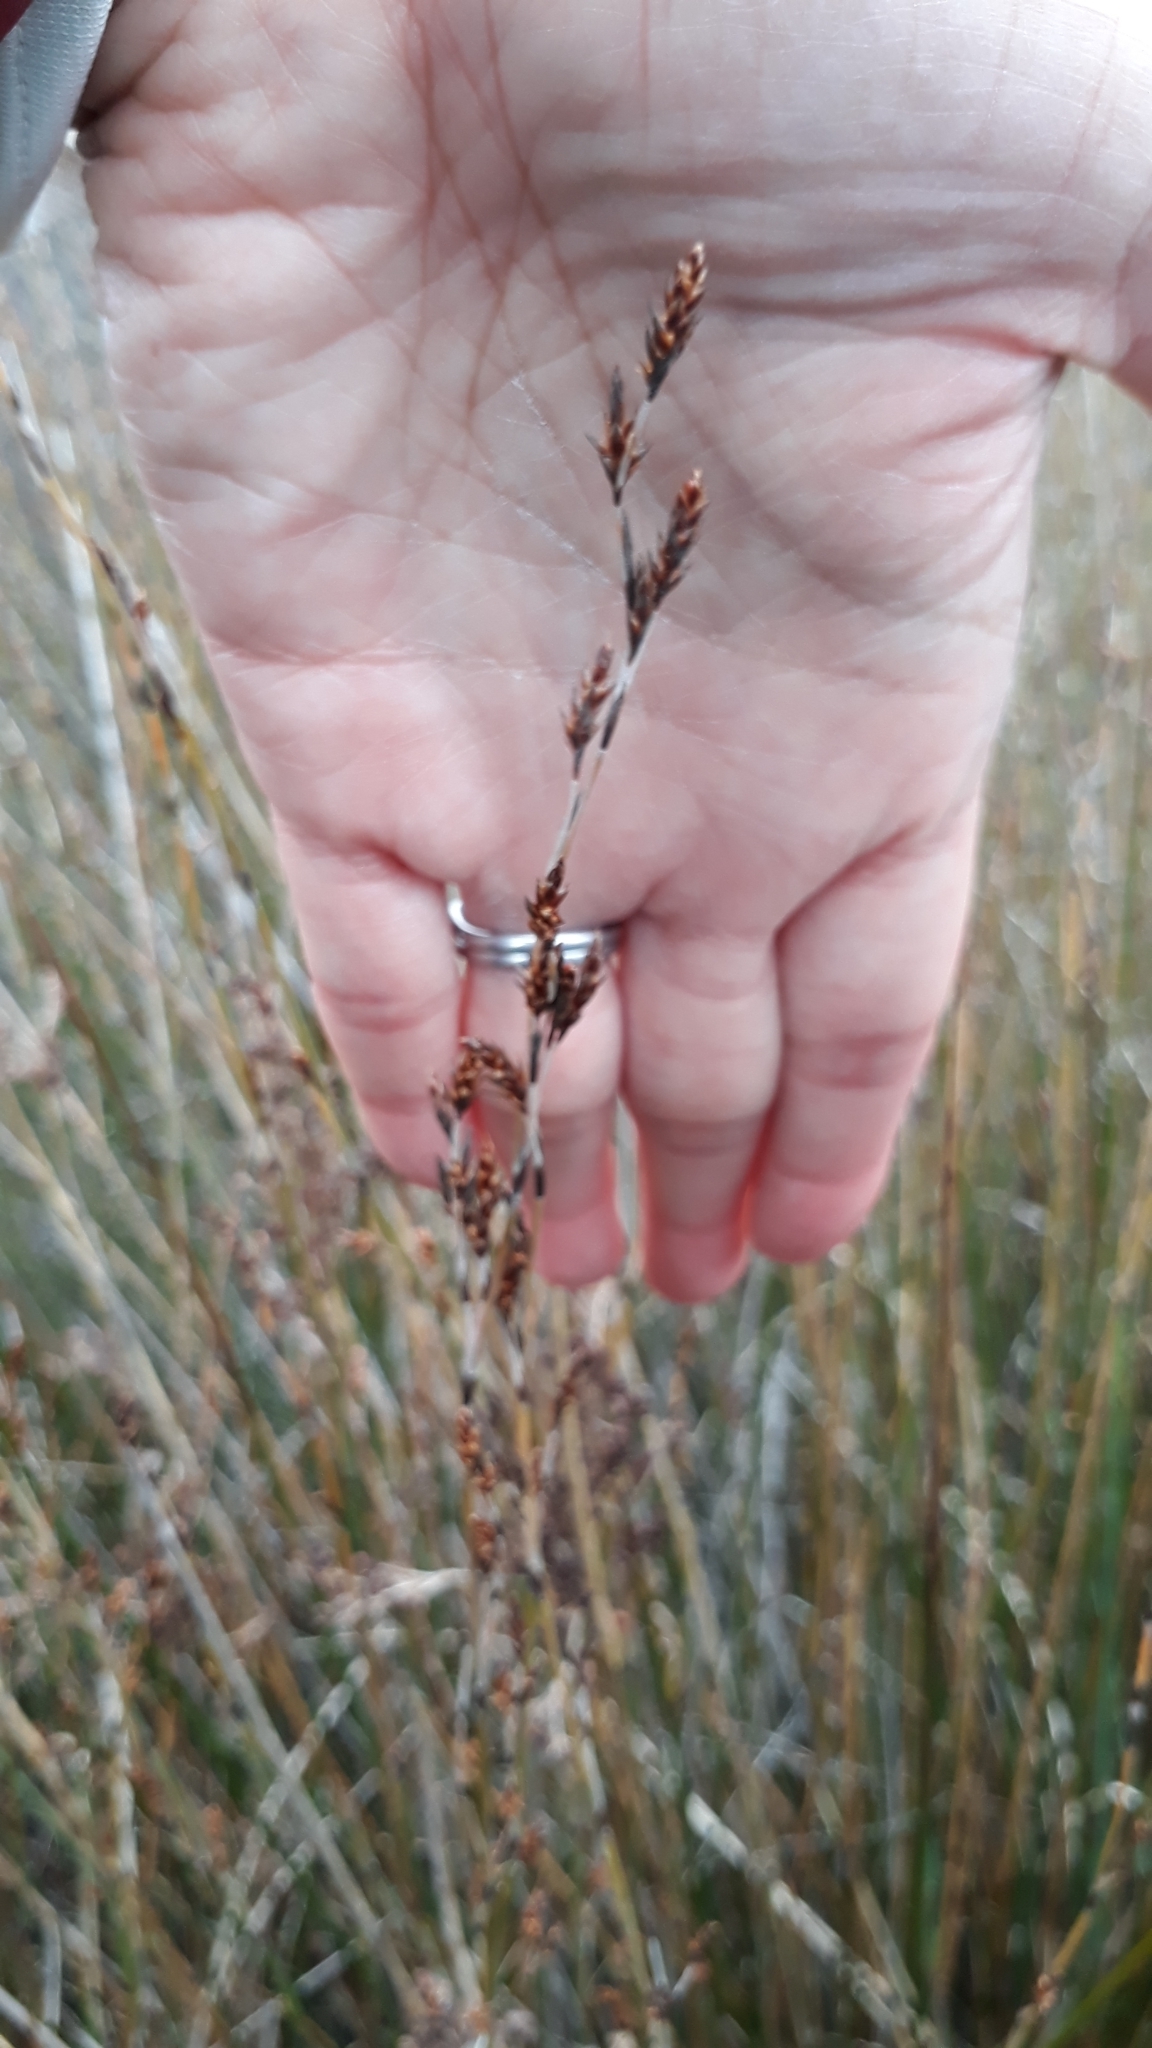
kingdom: Plantae
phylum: Tracheophyta
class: Liliopsida
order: Poales
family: Restionaceae
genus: Apodasmia
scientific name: Apodasmia similis
